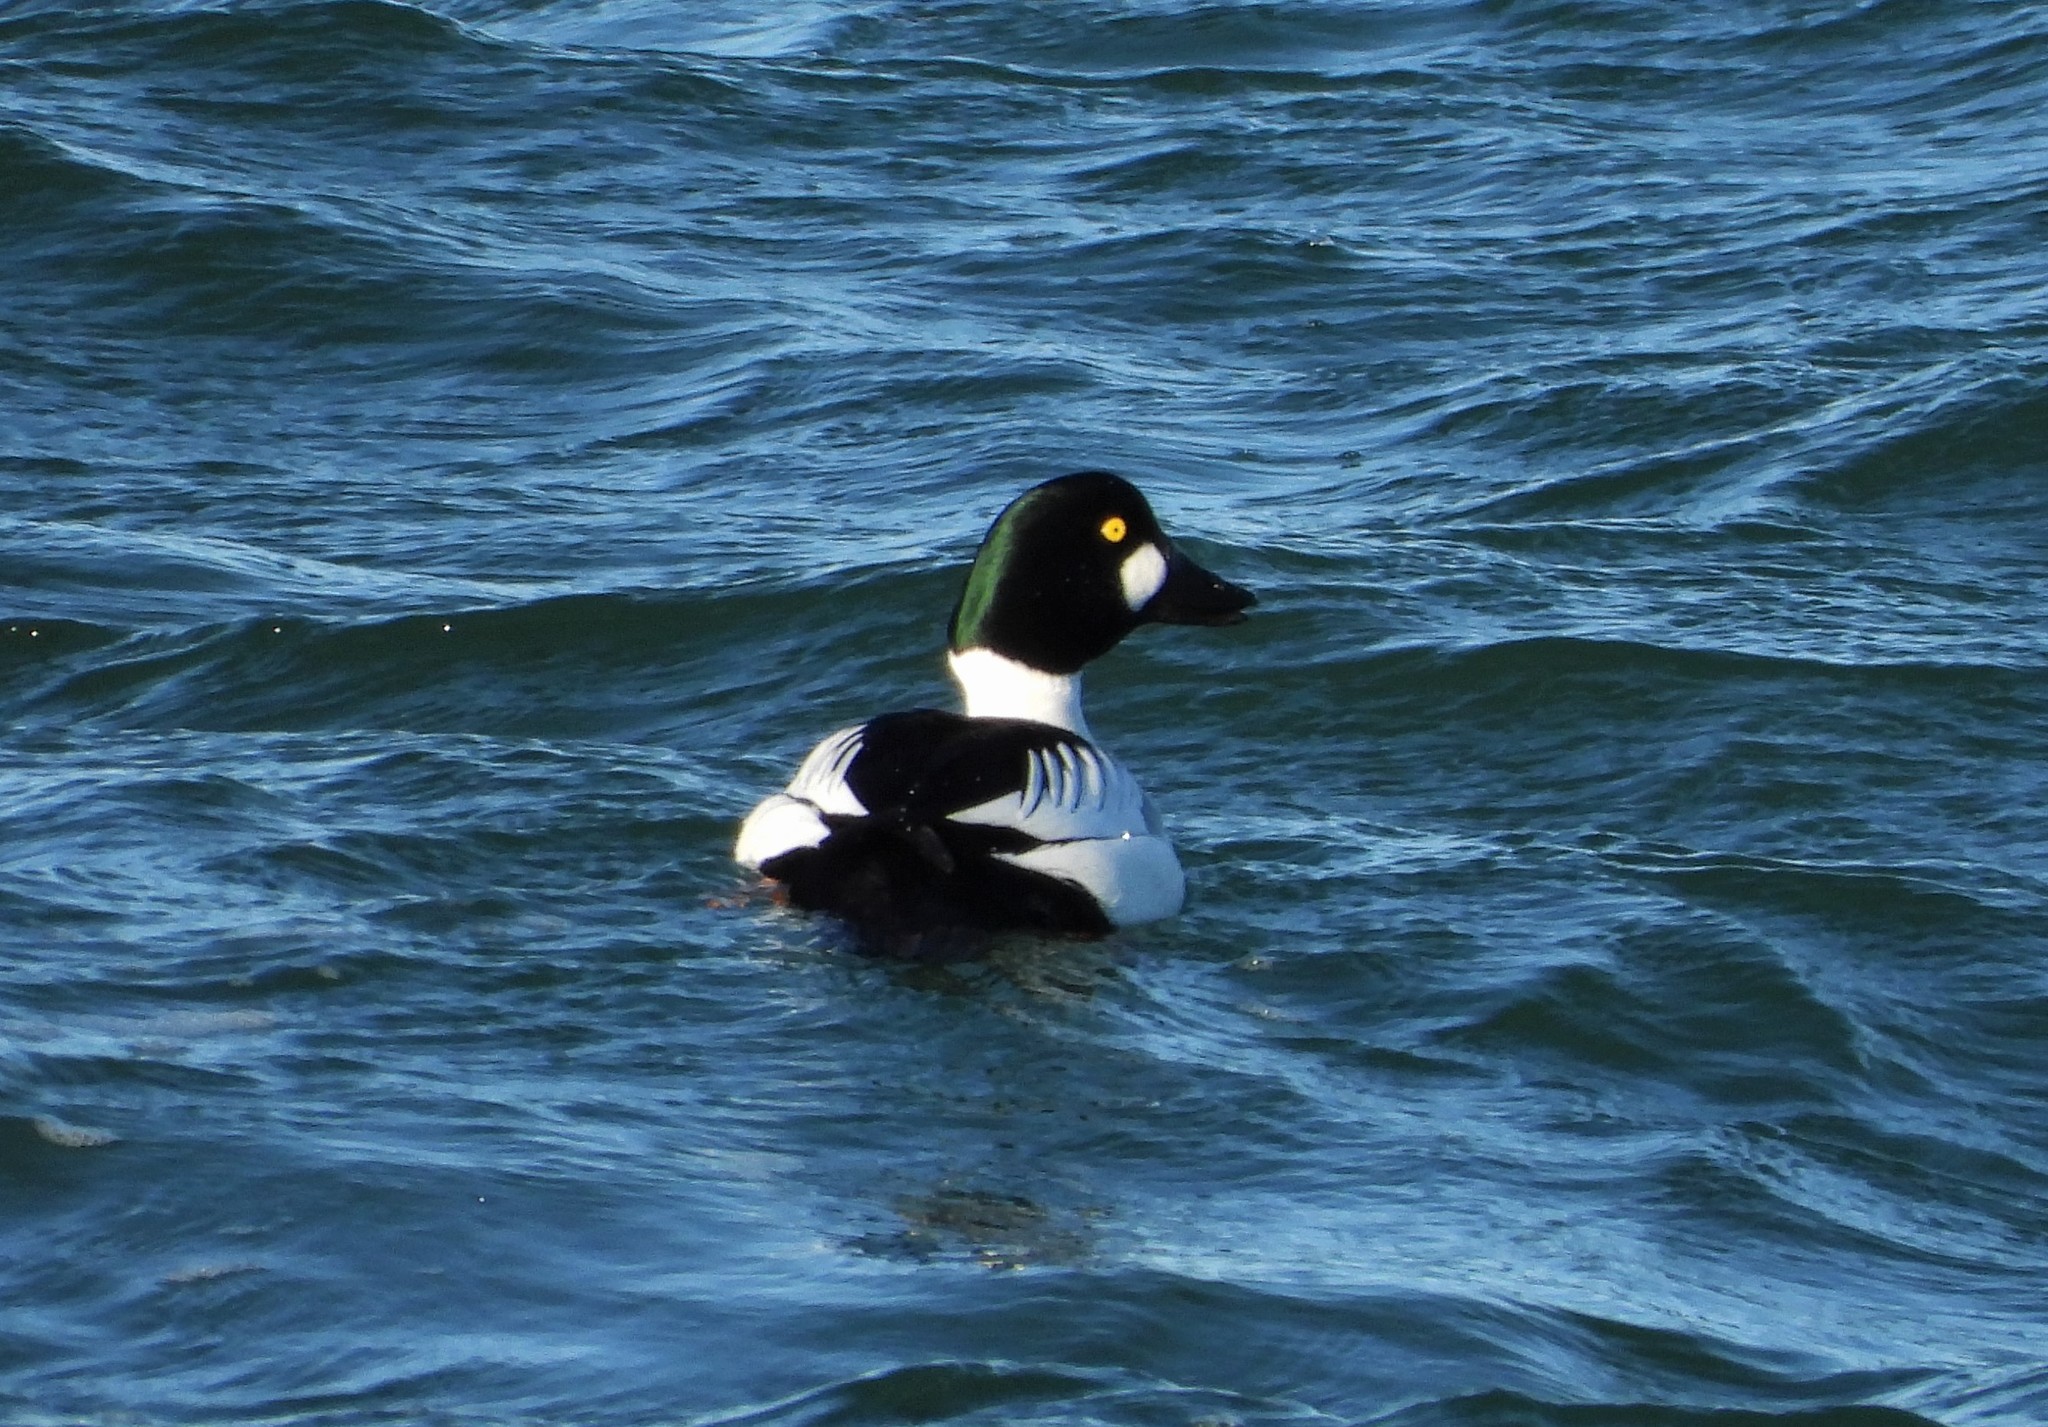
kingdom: Animalia
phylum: Chordata
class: Aves
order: Anseriformes
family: Anatidae
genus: Bucephala
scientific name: Bucephala clangula
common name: Common goldeneye
